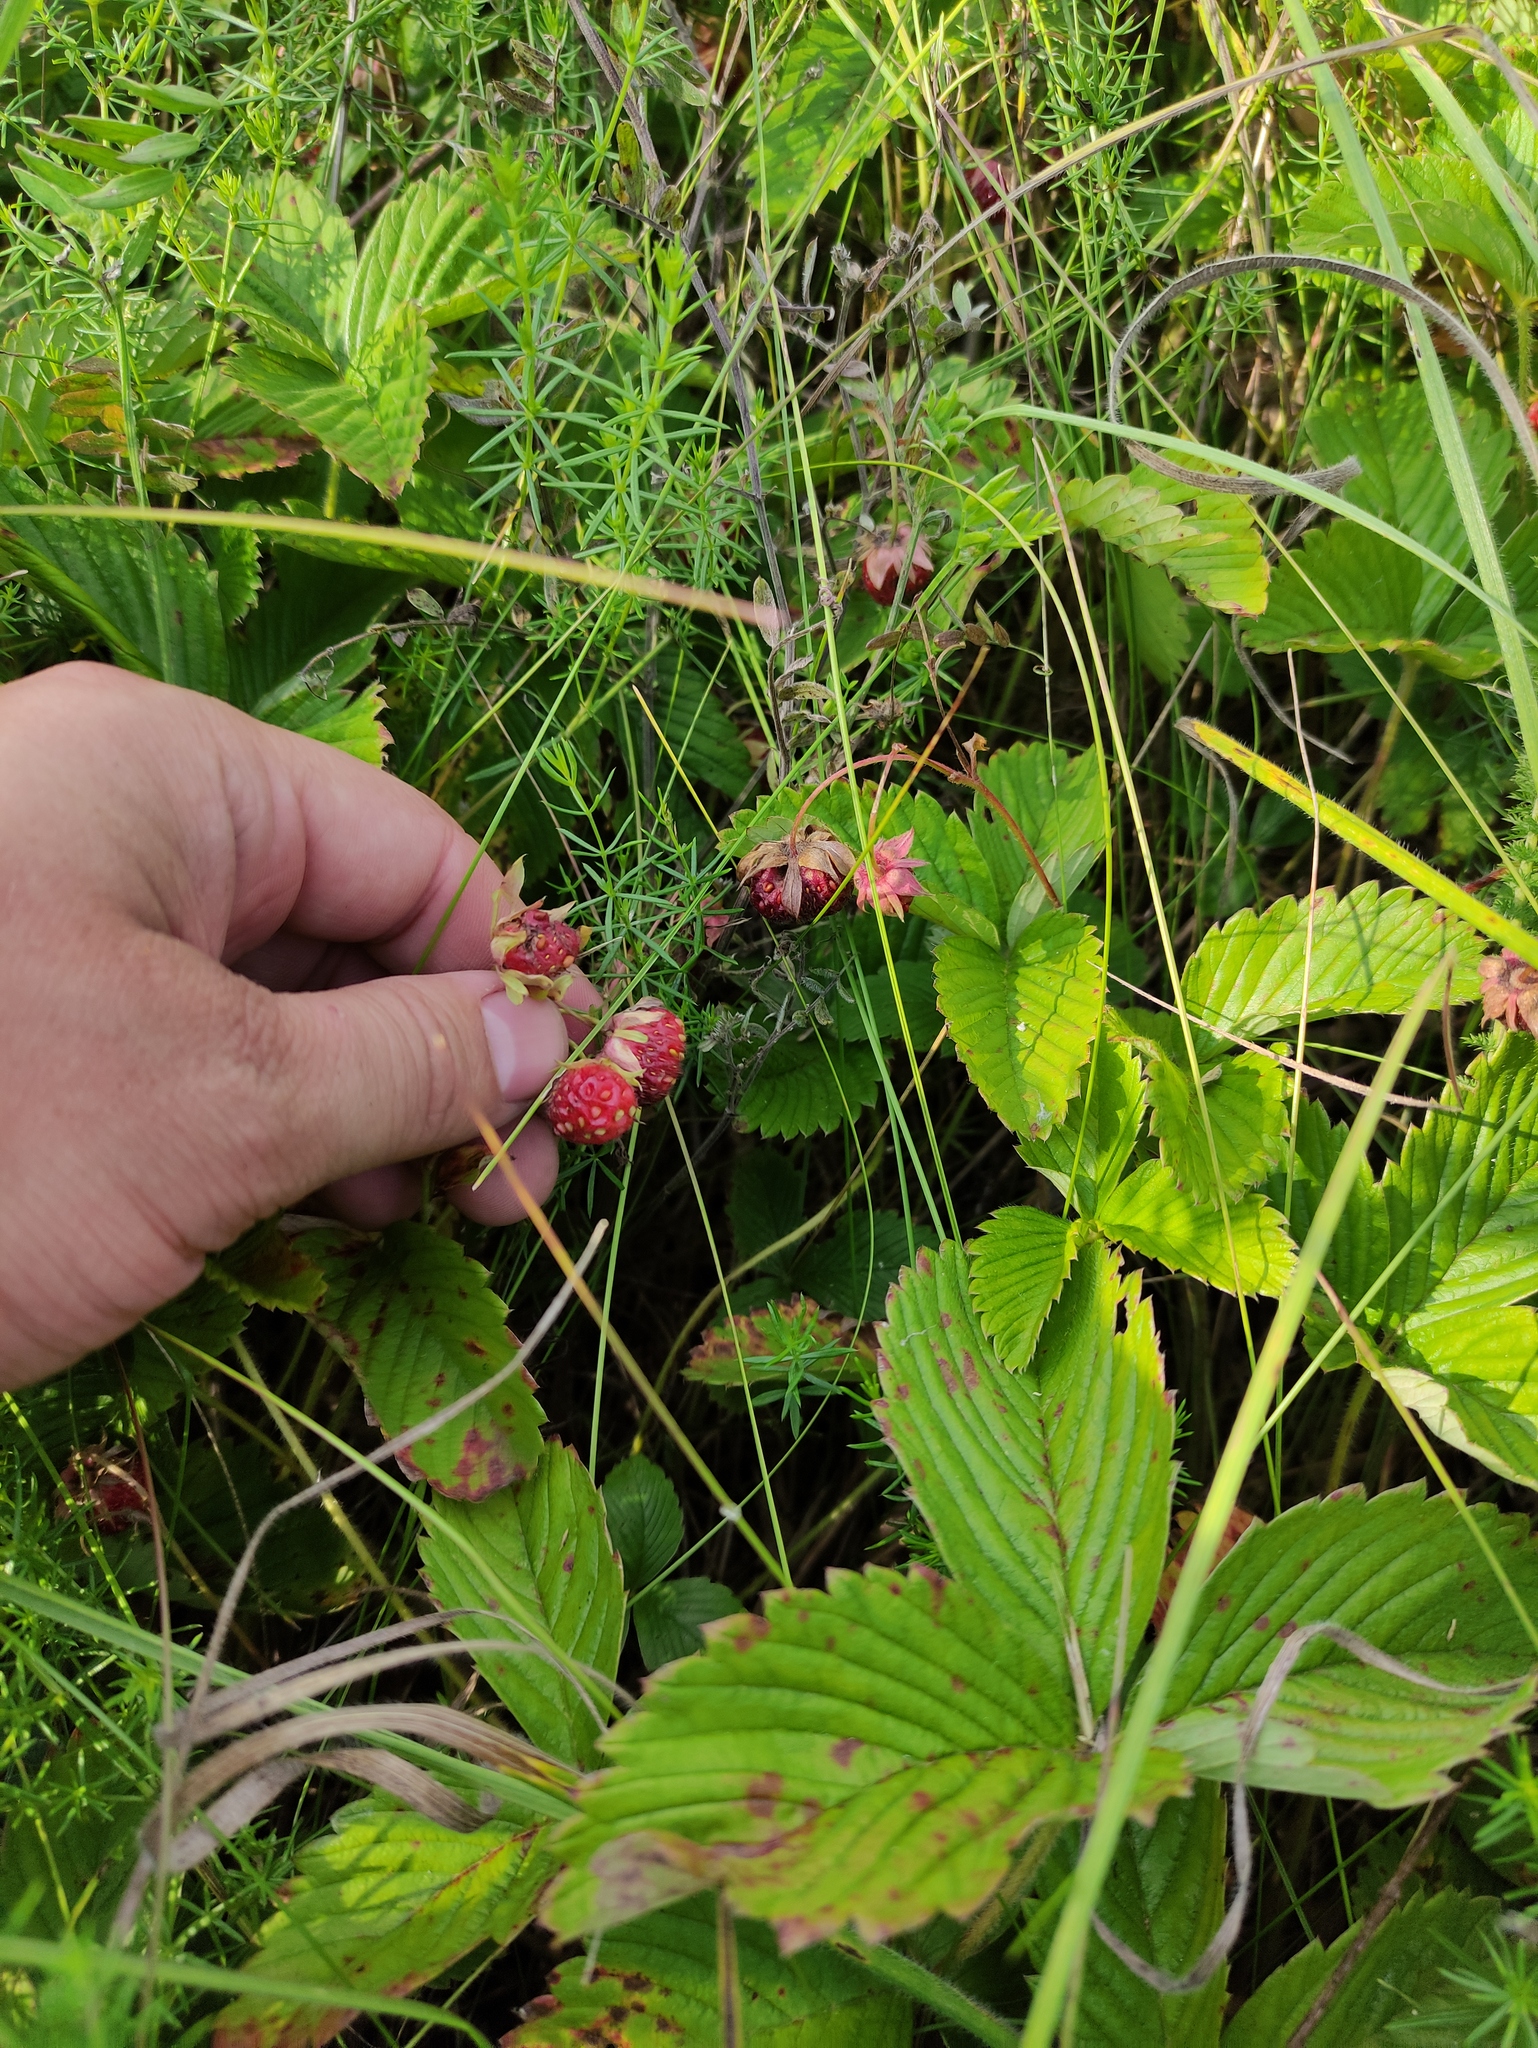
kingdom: Plantae
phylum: Tracheophyta
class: Magnoliopsida
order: Rosales
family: Rosaceae
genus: Fragaria
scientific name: Fragaria viridis
